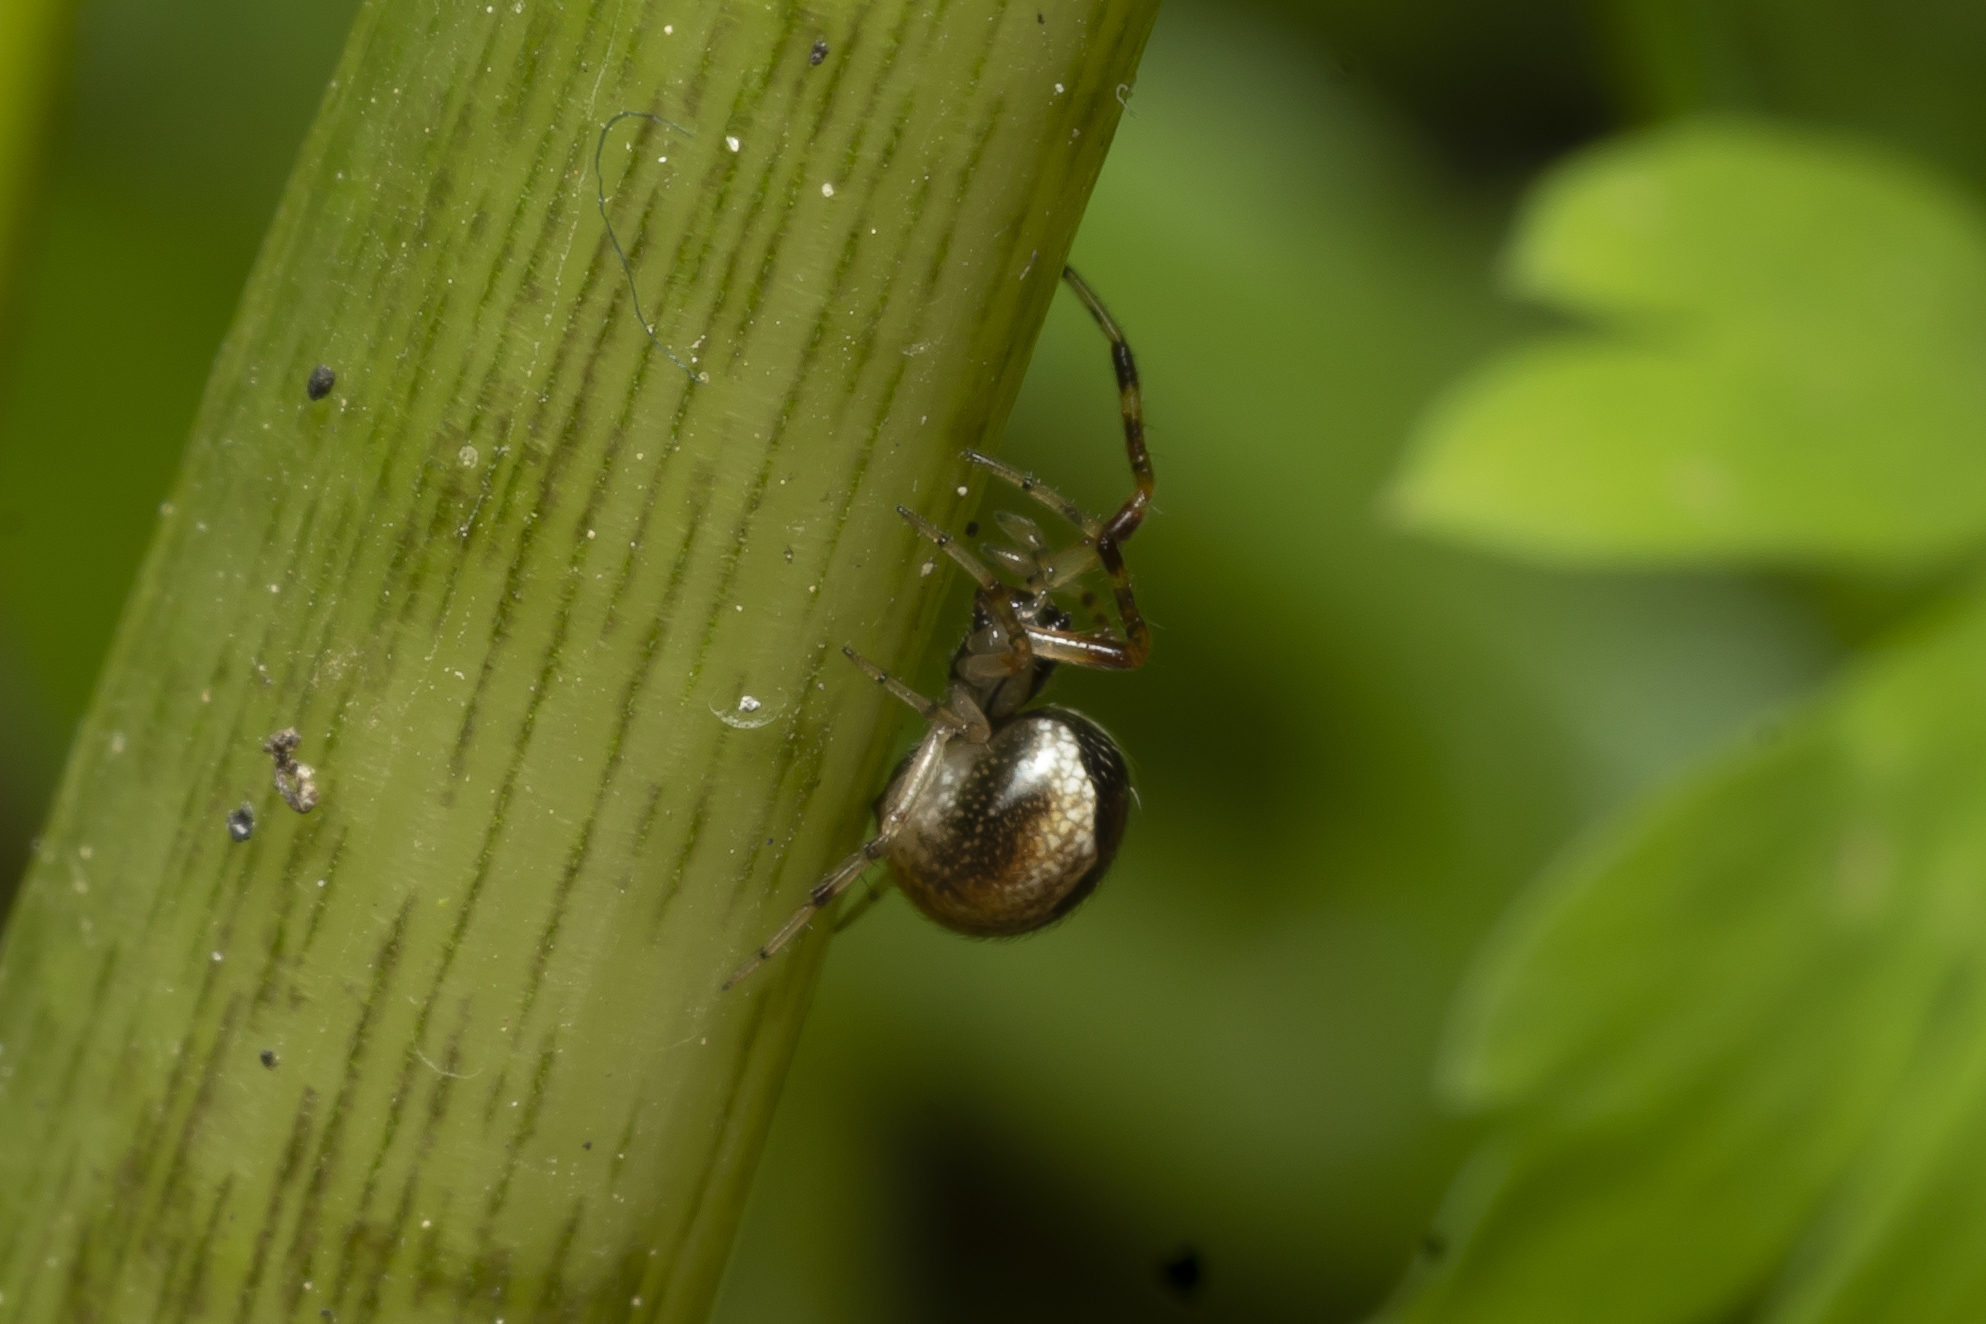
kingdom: Animalia
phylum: Arthropoda
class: Arachnida
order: Araneae
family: Theridiidae
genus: Anelosimus
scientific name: Anelosimus vittatus
